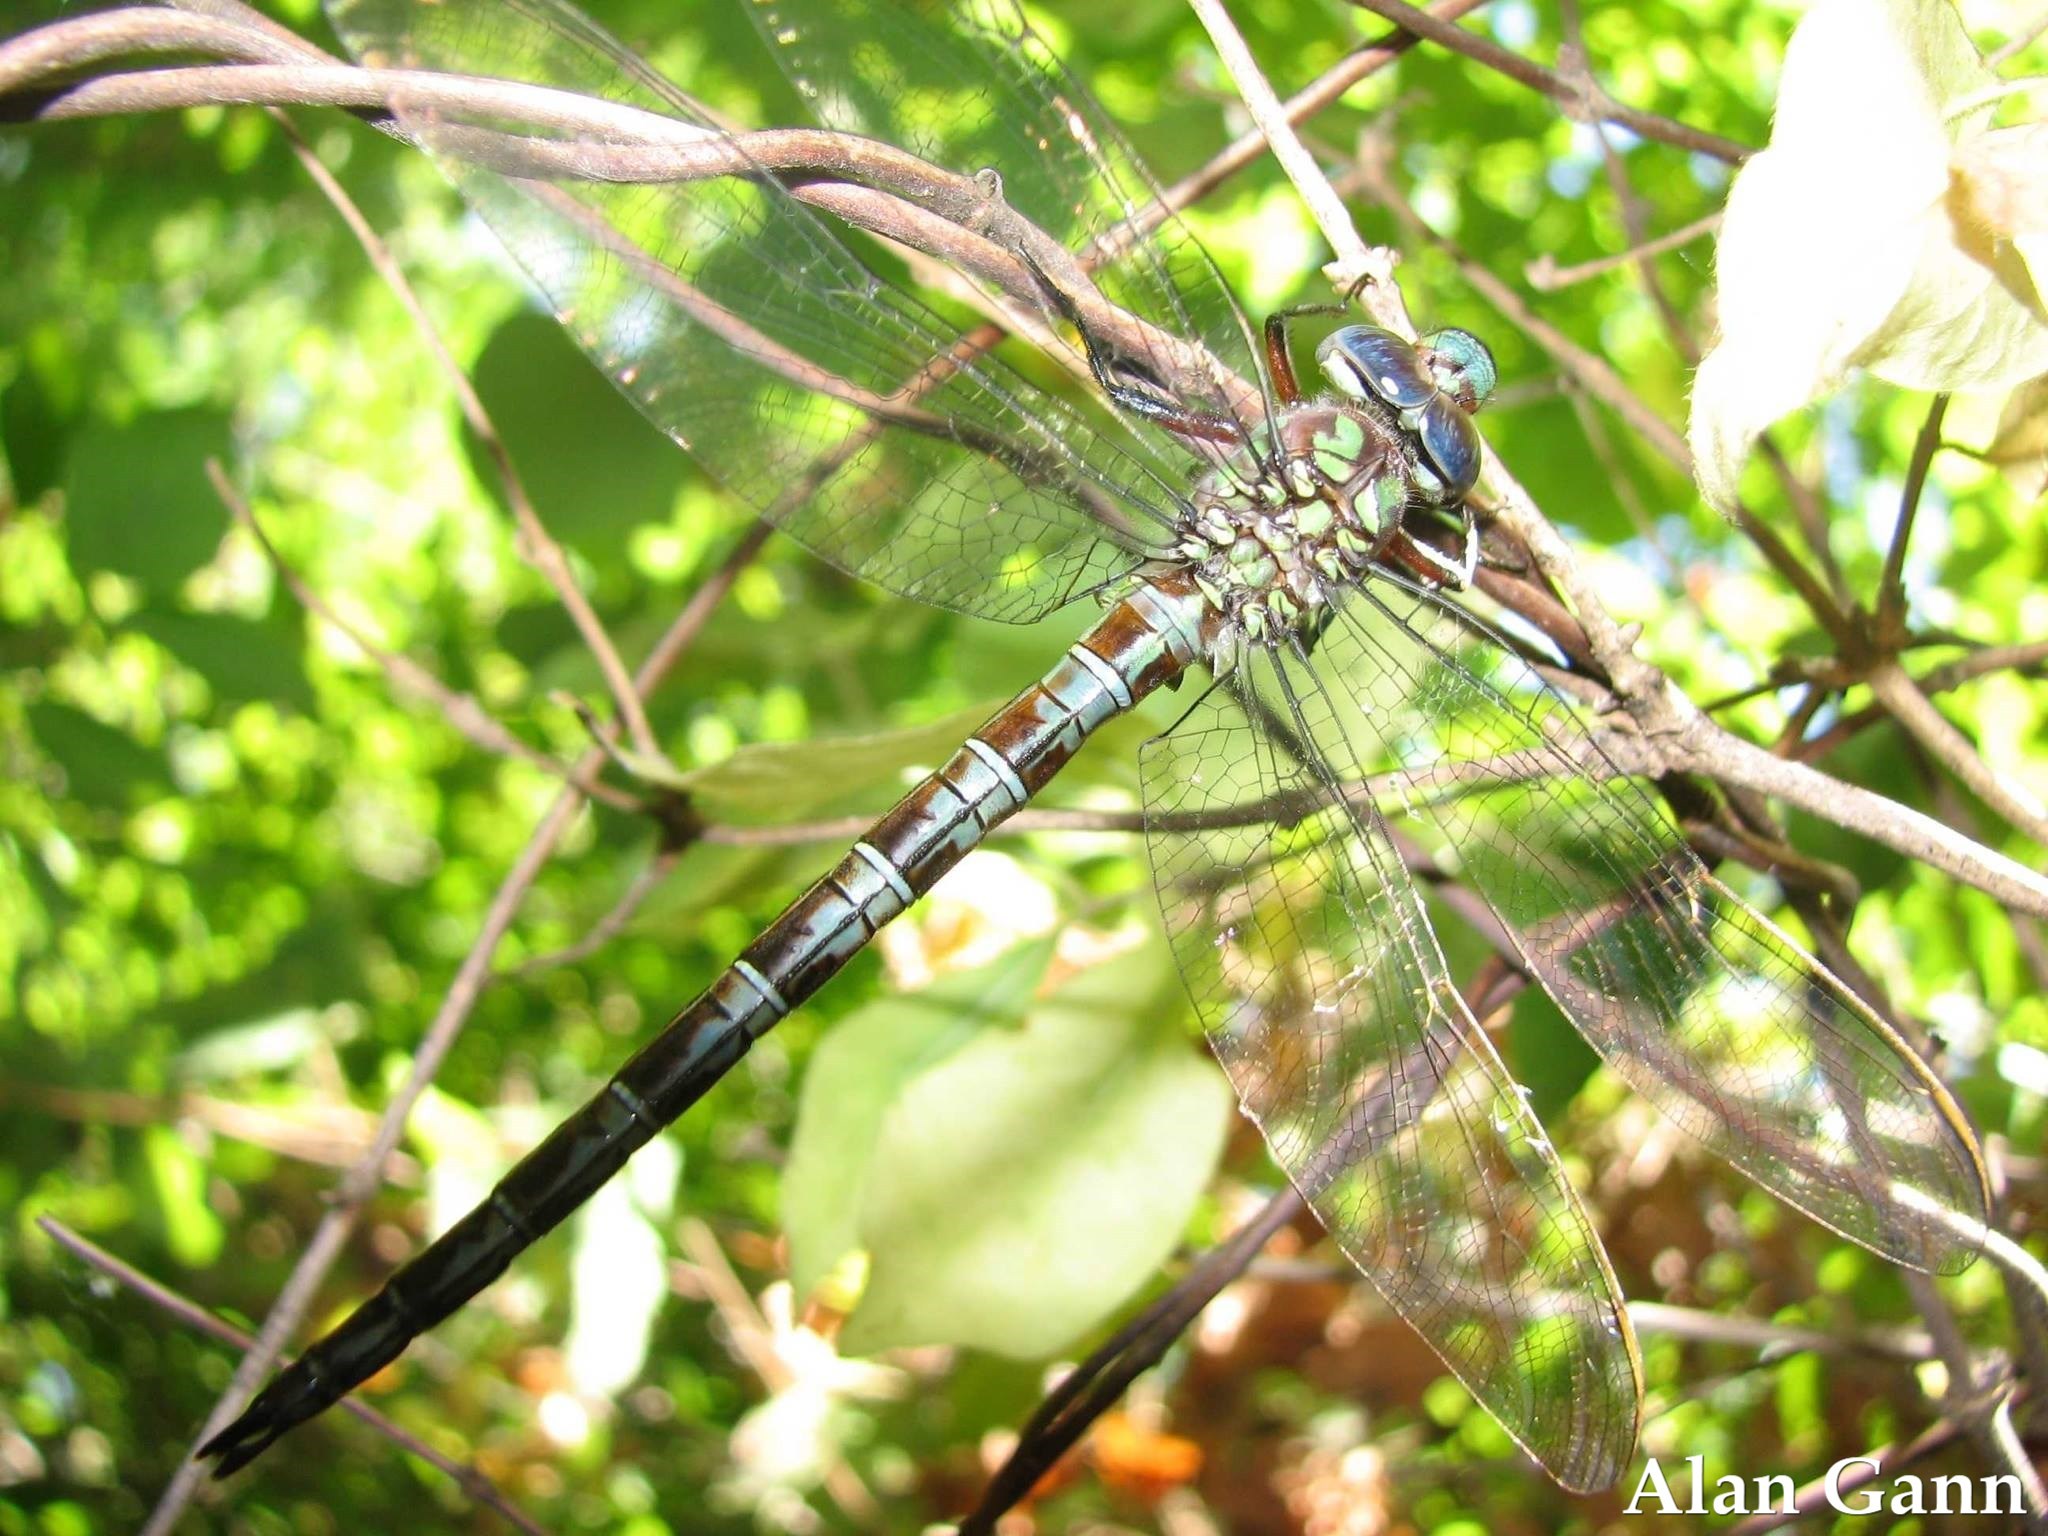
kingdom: Animalia
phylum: Arthropoda
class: Insecta
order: Odonata
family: Aeshnidae
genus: Nasiaeschna
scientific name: Nasiaeschna pentacantha
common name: Cyrano darner
